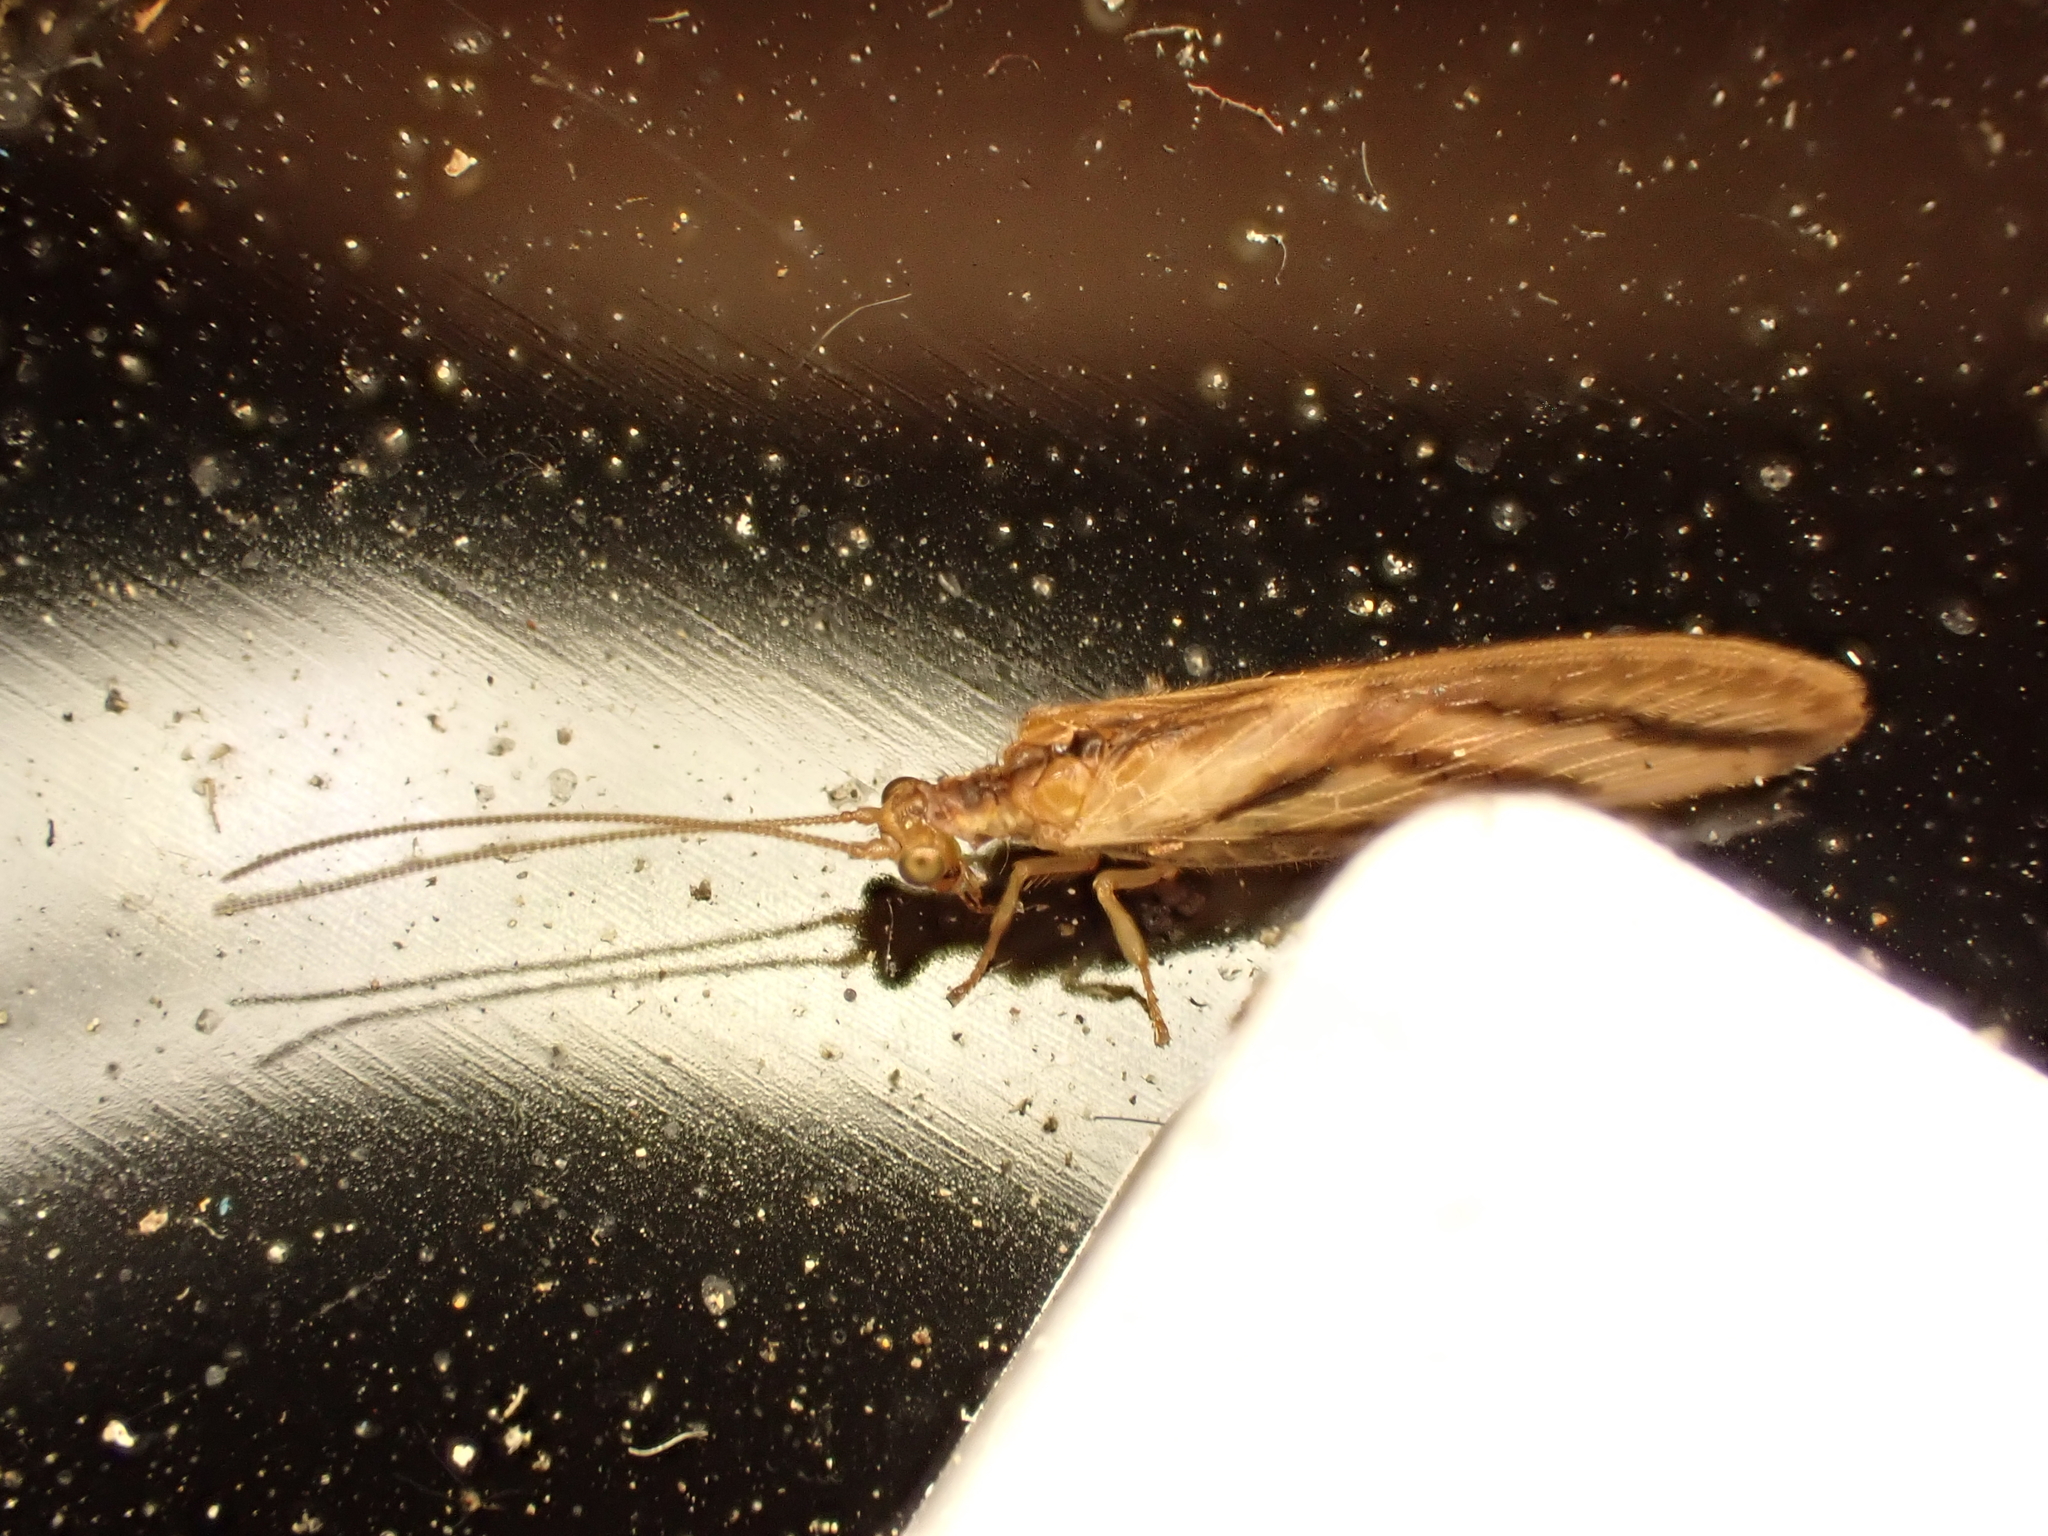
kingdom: Animalia
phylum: Arthropoda
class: Insecta
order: Neuroptera
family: Hemerobiidae
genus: Micromus
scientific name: Micromus bifasciatus
